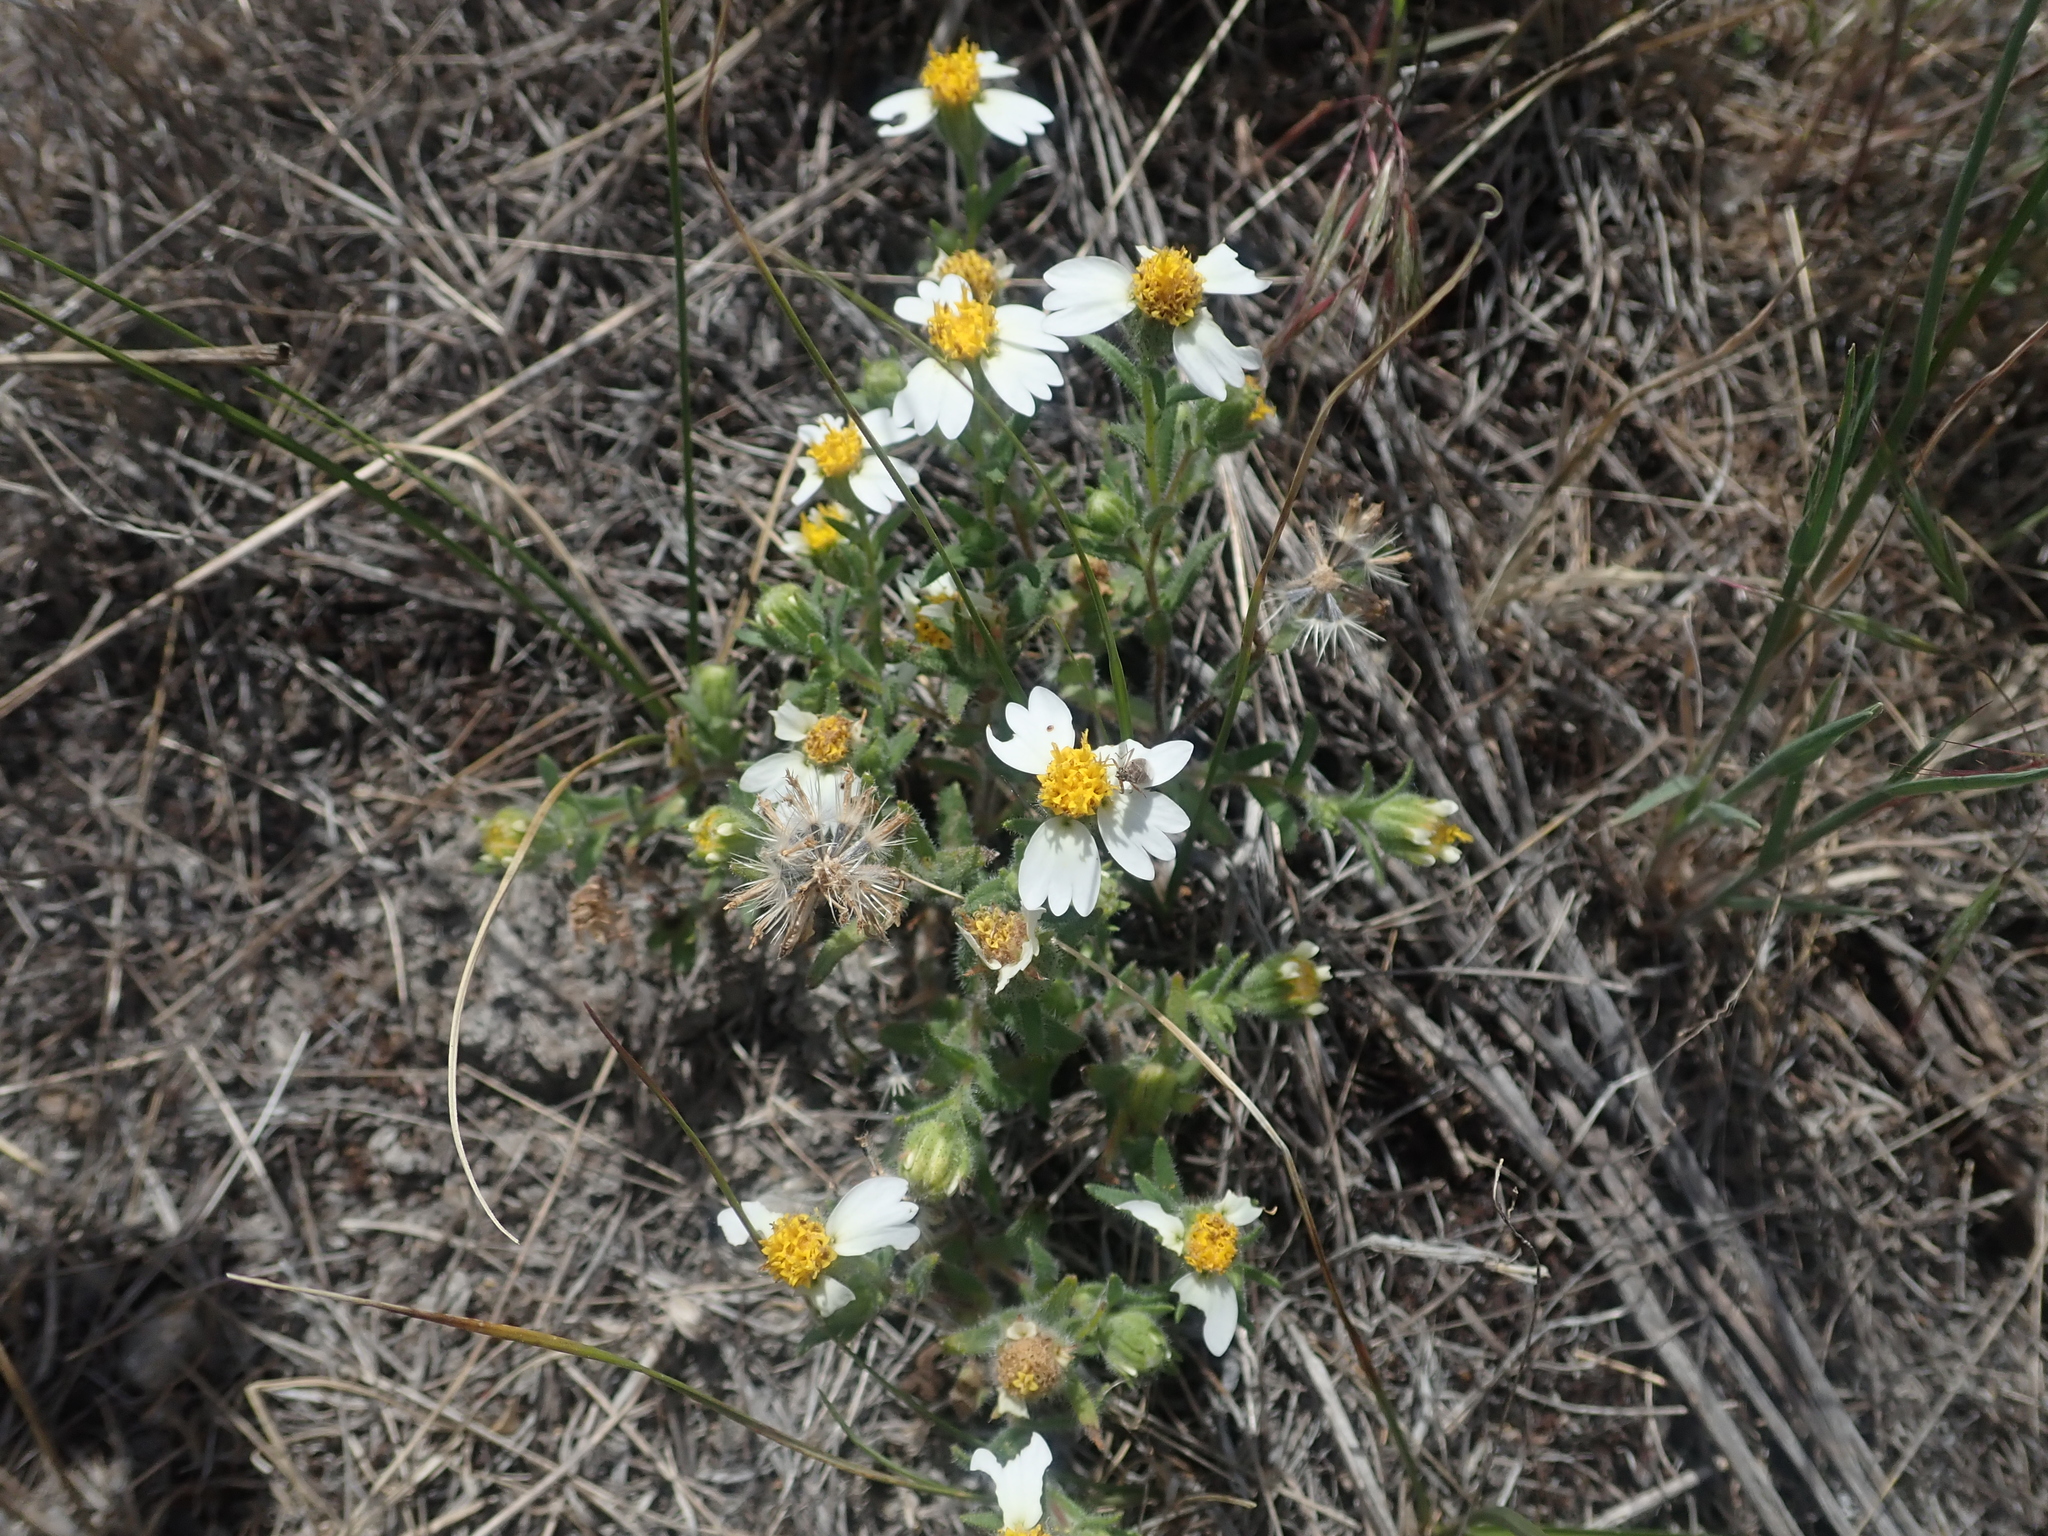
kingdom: Plantae
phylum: Tracheophyta
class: Magnoliopsida
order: Asterales
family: Asteraceae
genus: Layia
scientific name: Layia glandulosa
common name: White layia
